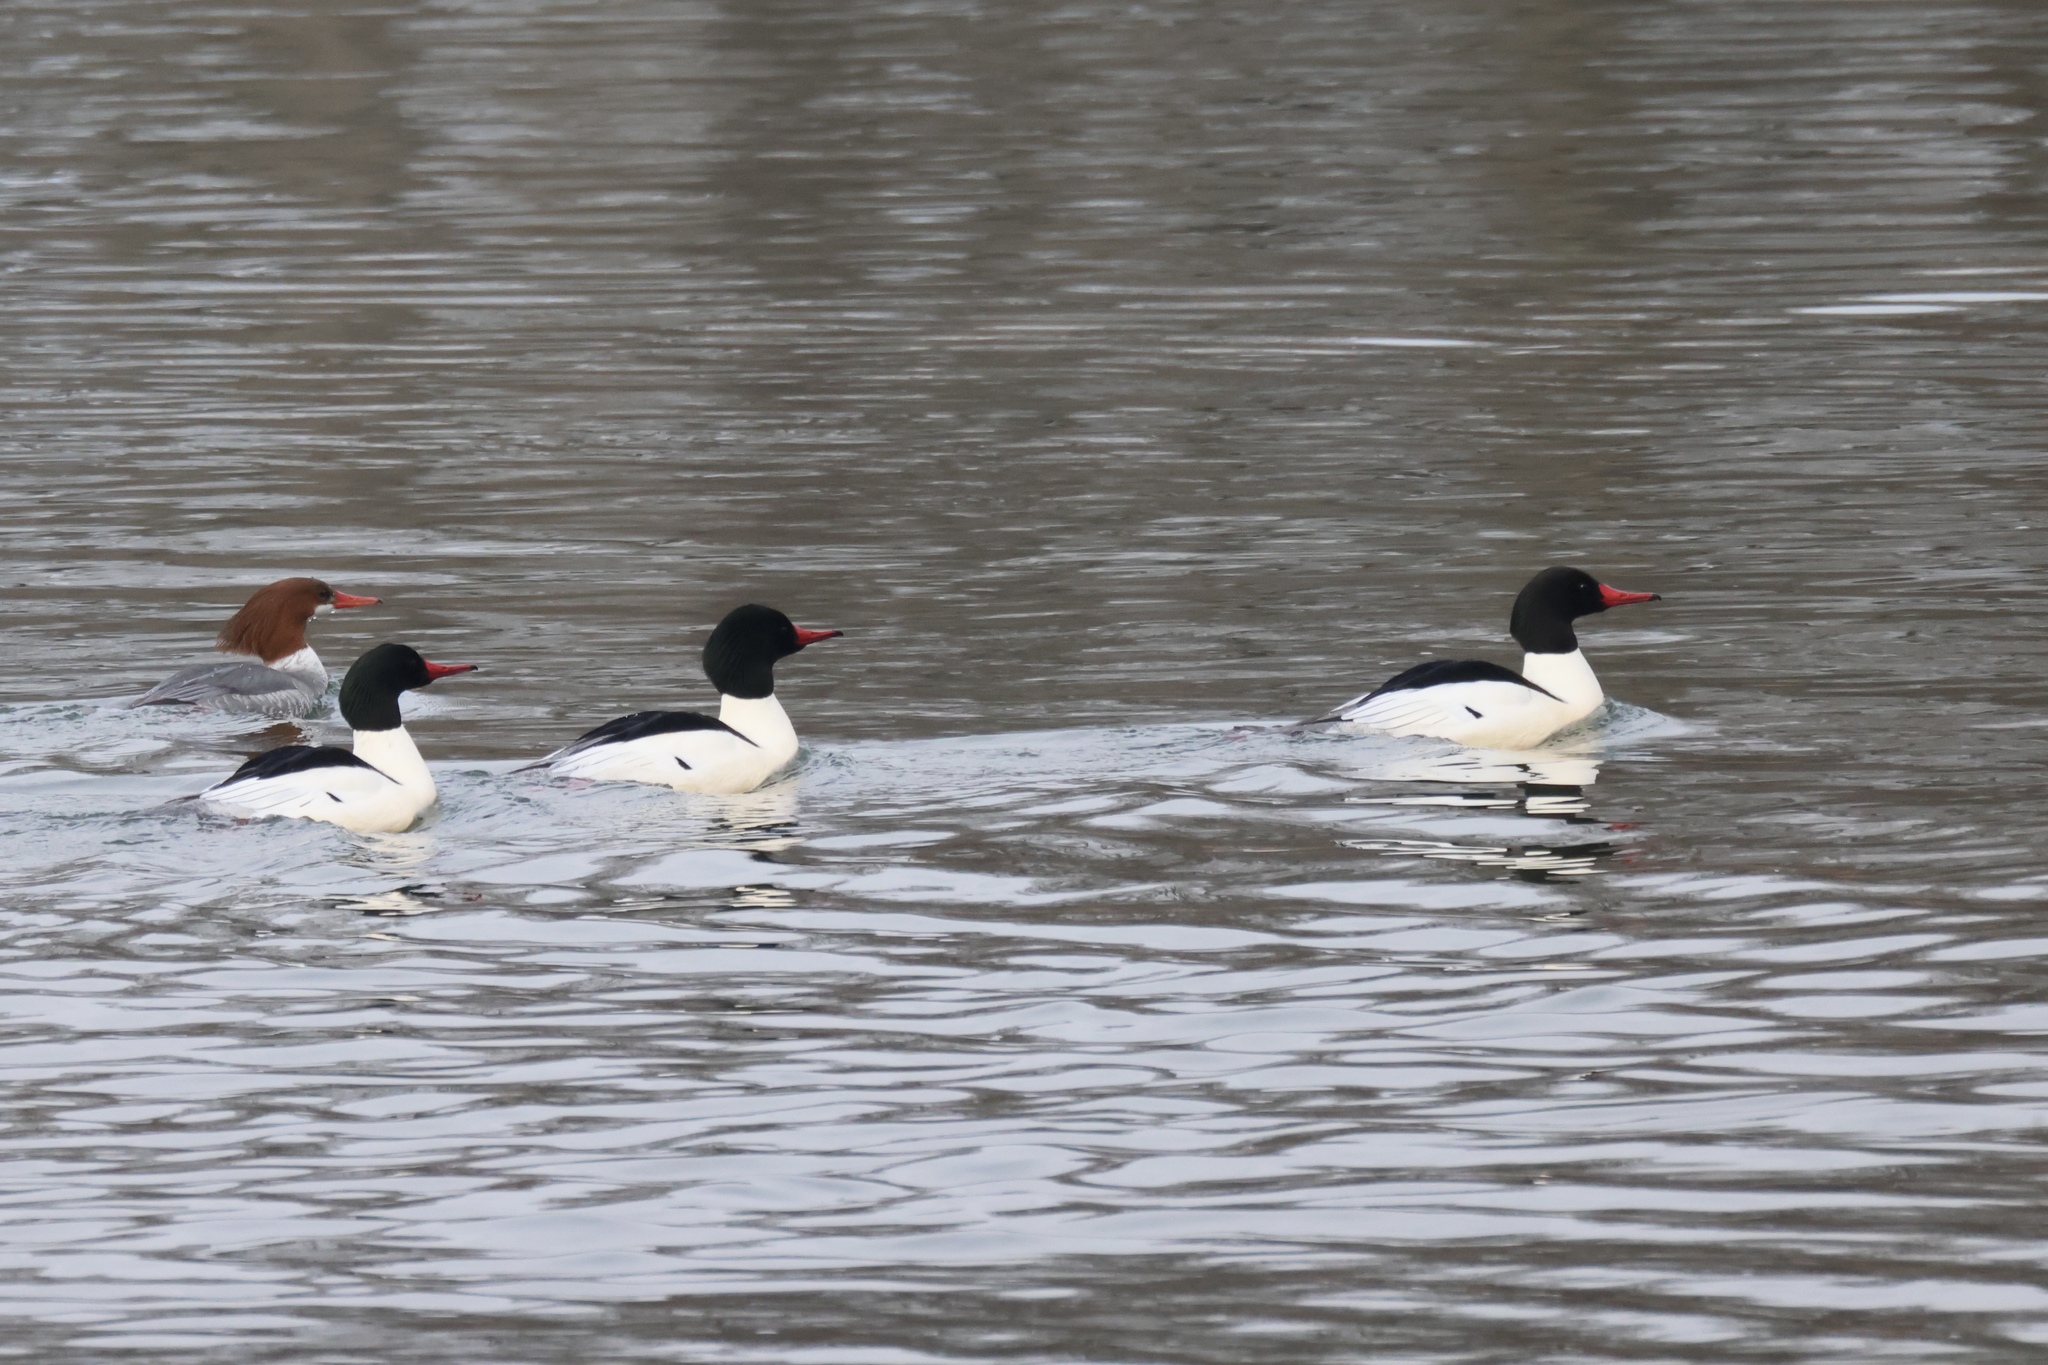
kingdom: Animalia
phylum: Chordata
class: Aves
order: Anseriformes
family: Anatidae
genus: Mergus
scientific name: Mergus merganser
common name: Common merganser
